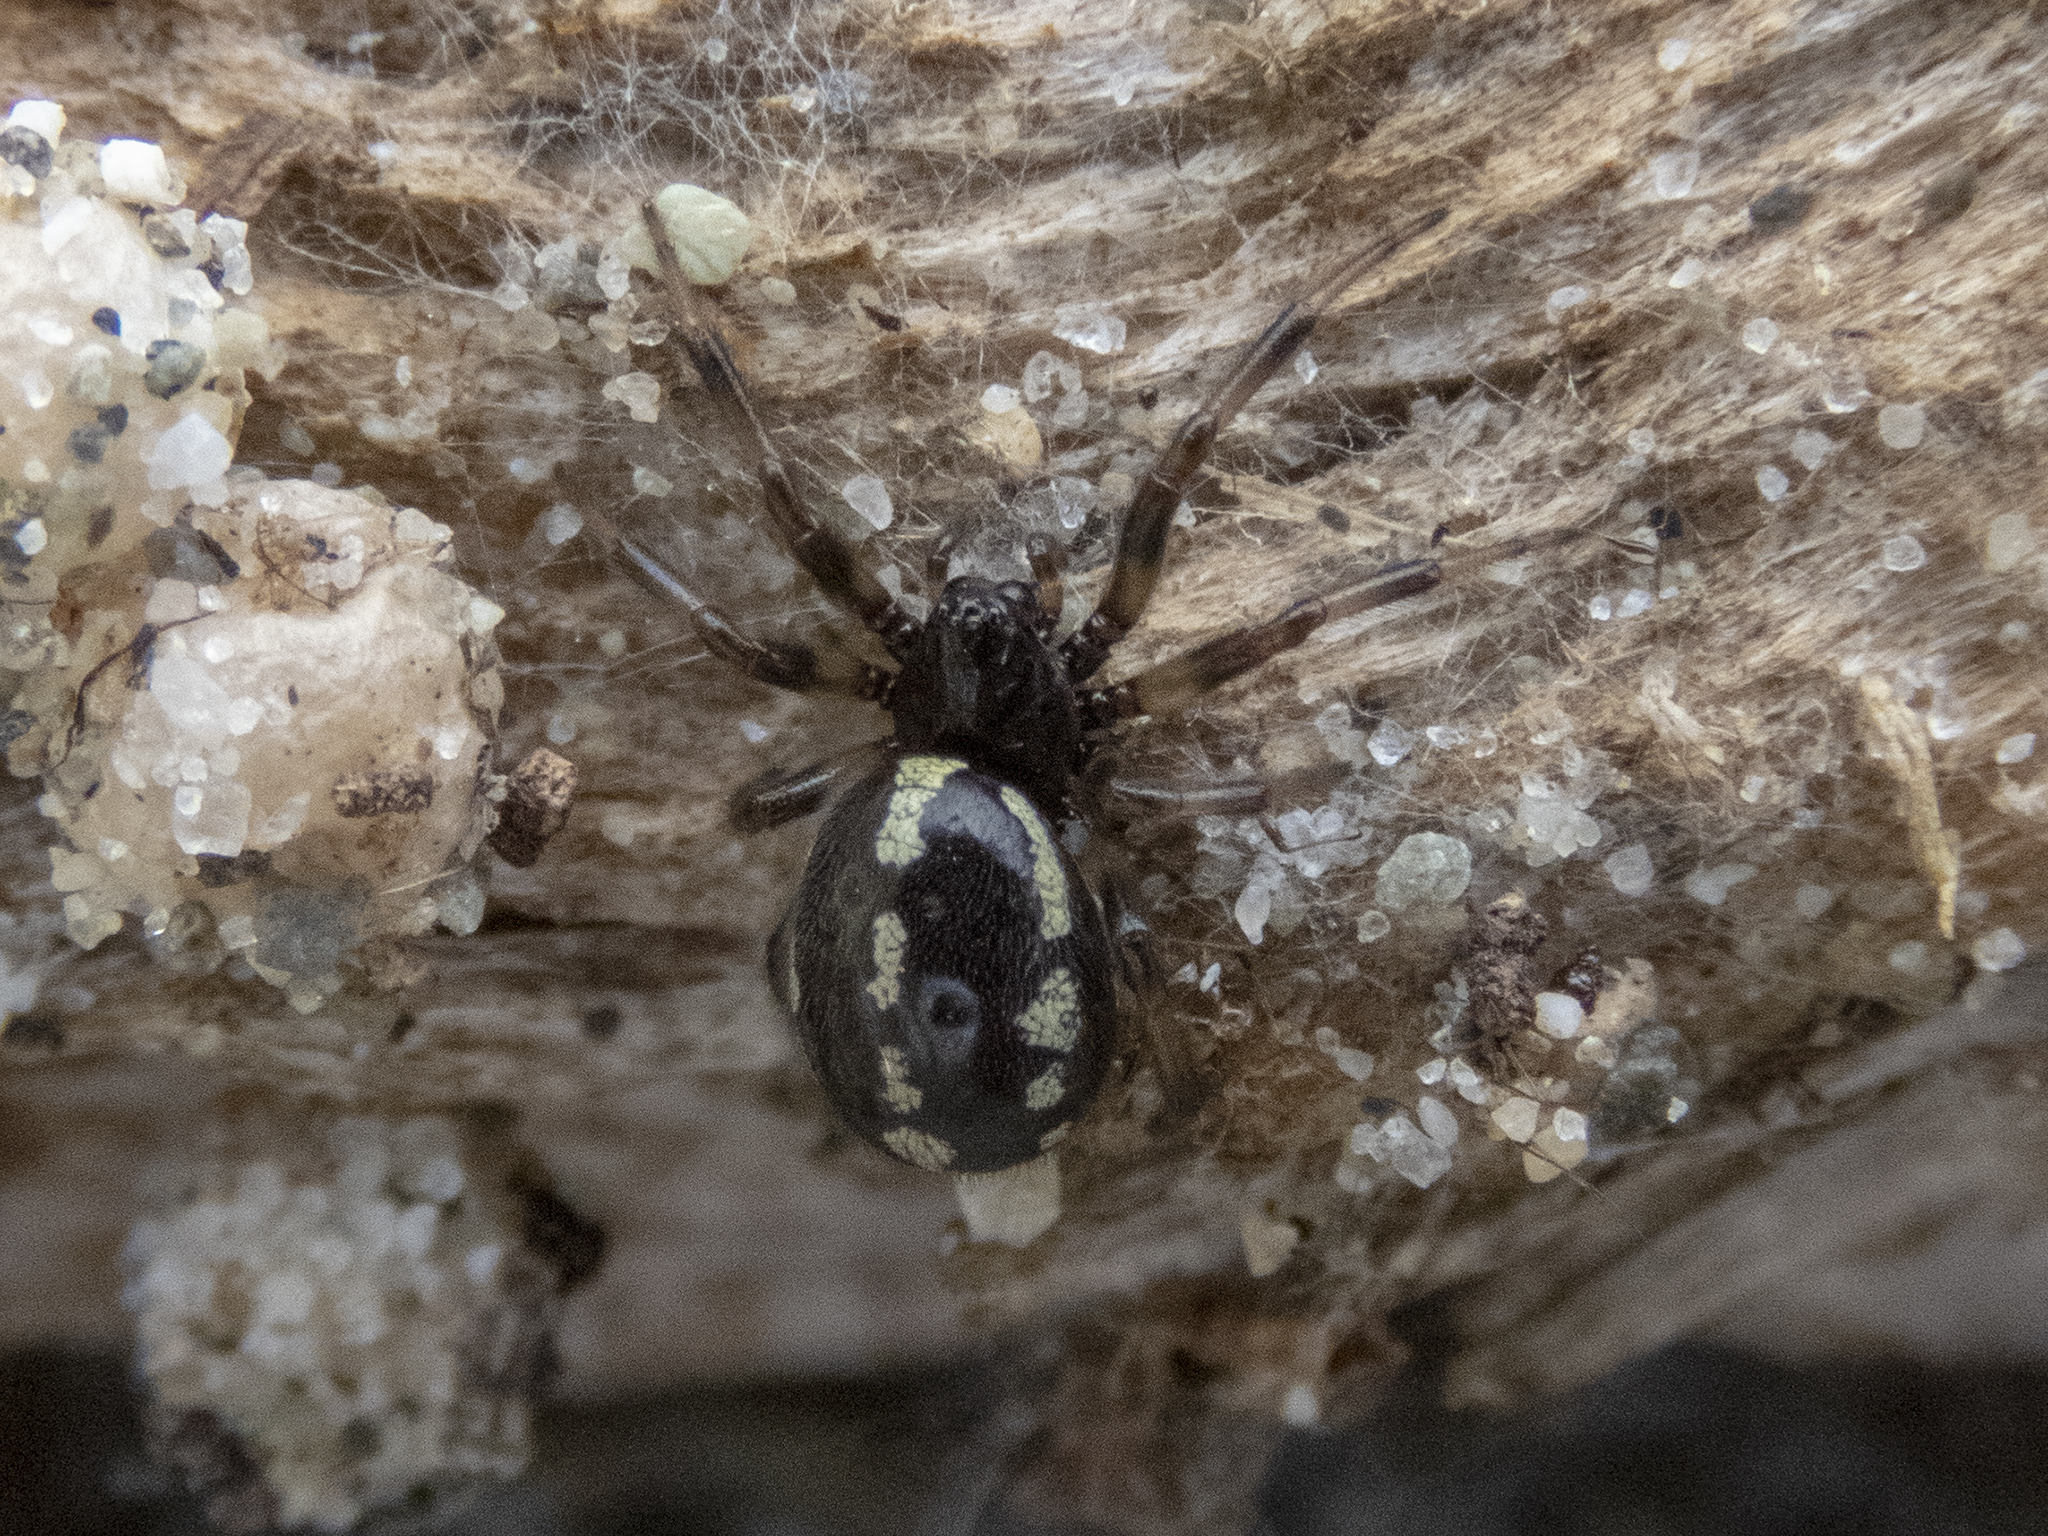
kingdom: Animalia
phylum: Arthropoda
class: Arachnida
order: Araneae
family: Theridiidae
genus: Steatoda
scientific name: Steatoda lepida
